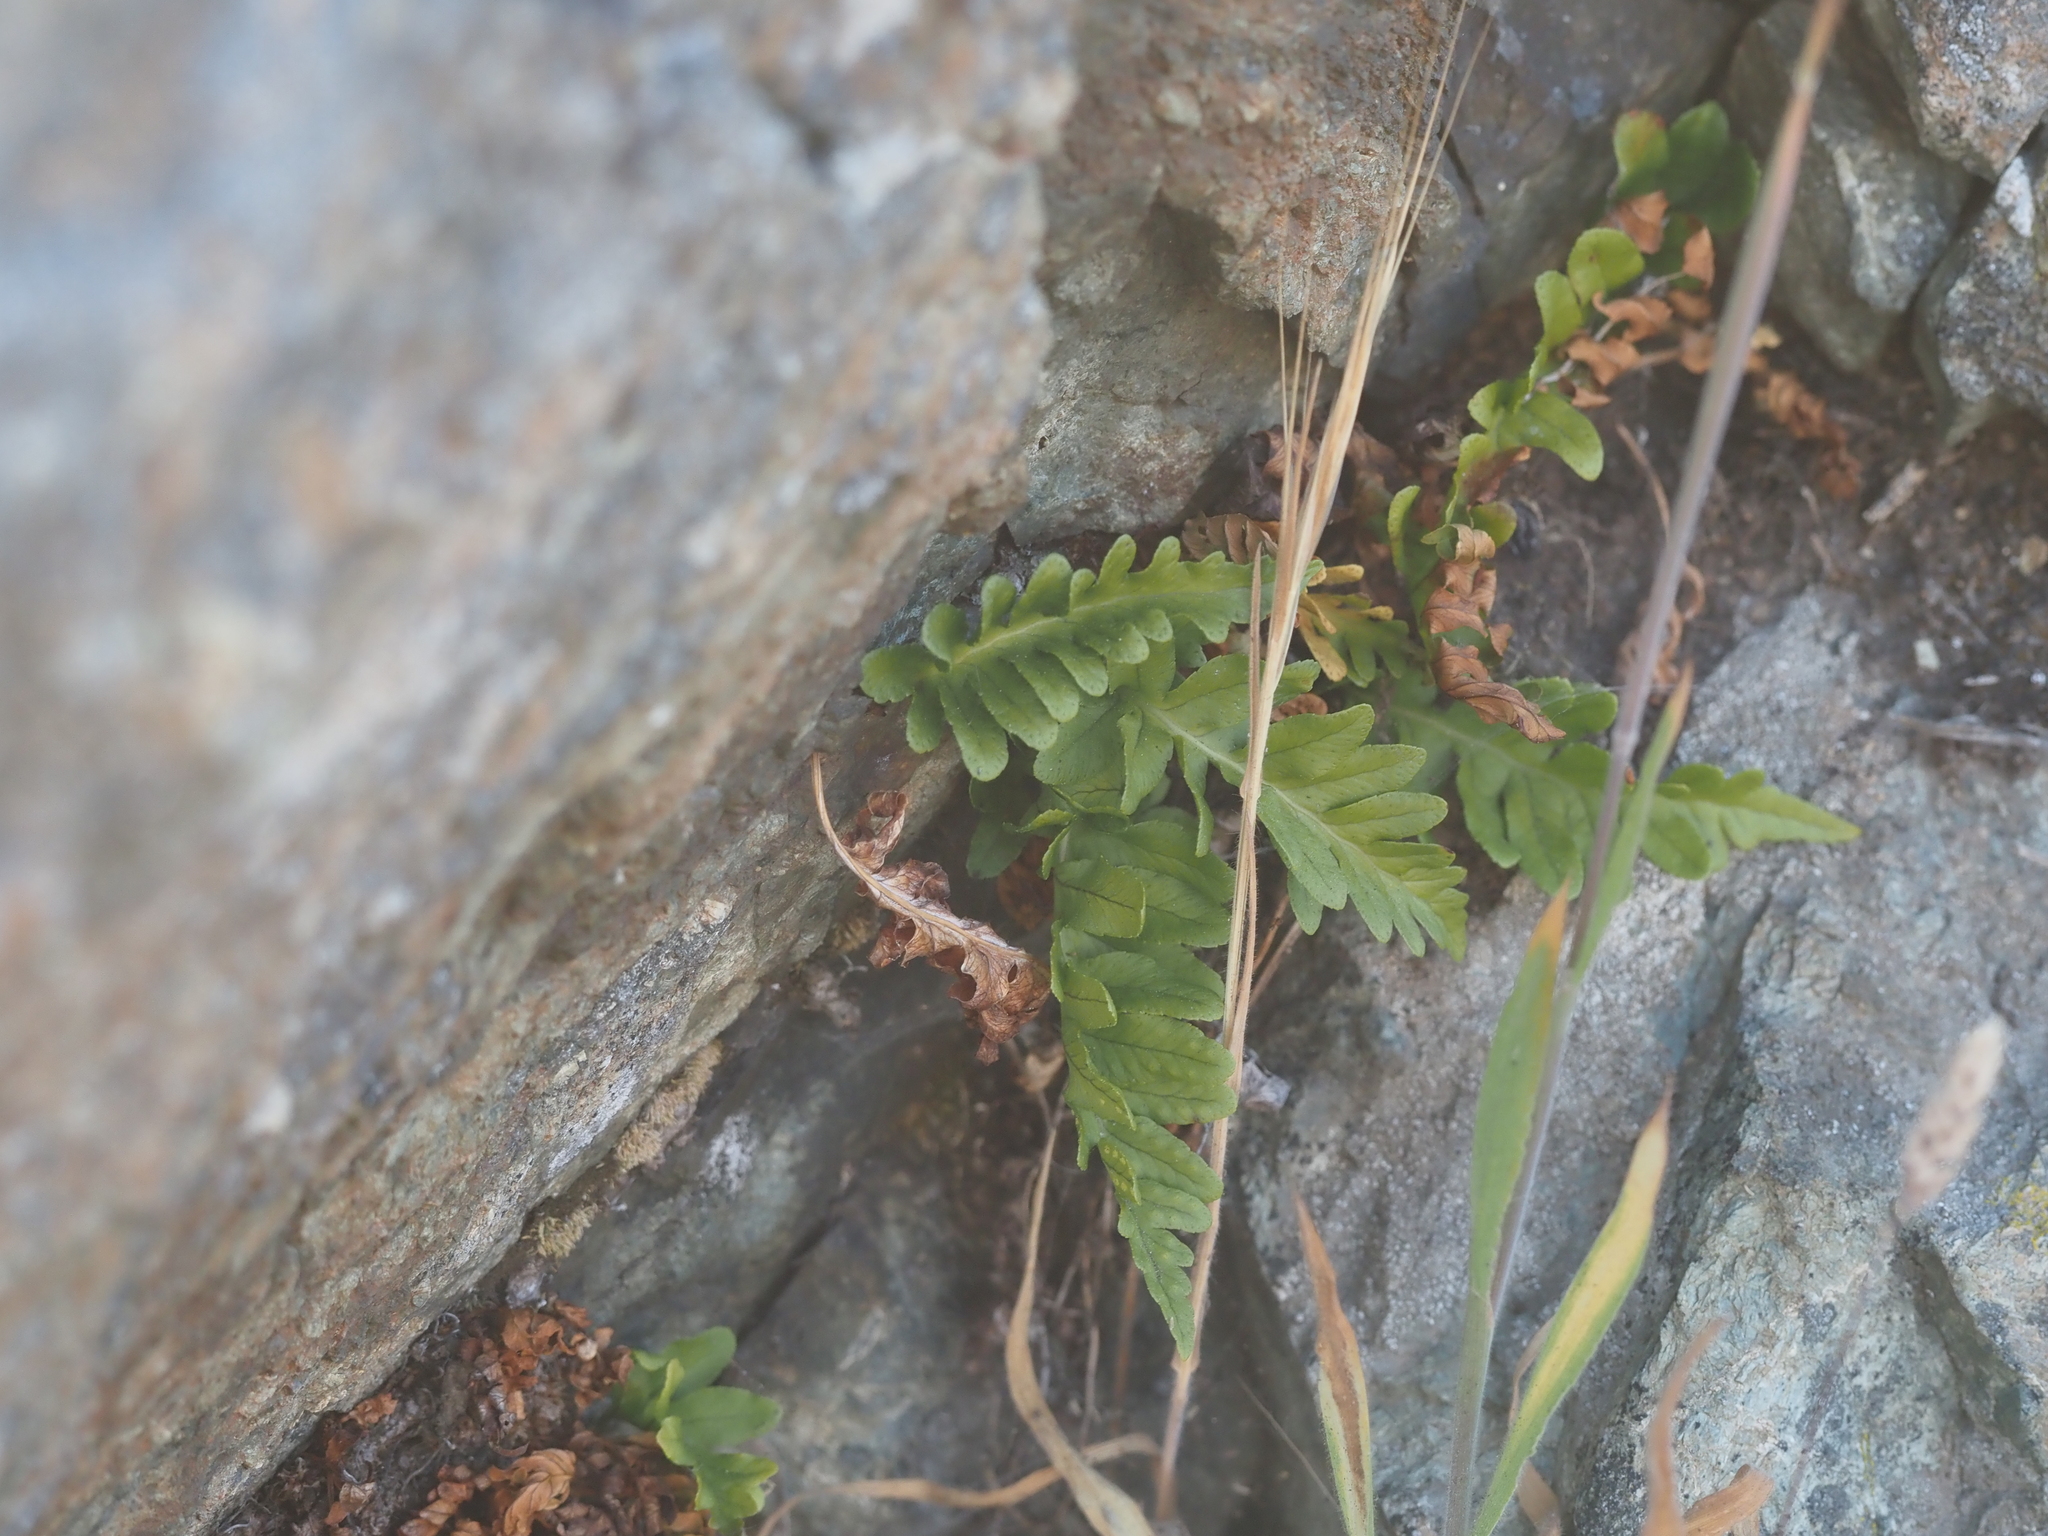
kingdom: Plantae
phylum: Tracheophyta
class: Polypodiopsida
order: Polypodiales
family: Polypodiaceae
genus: Polypodium
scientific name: Polypodium glycyrrhiza
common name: Licorice fern
